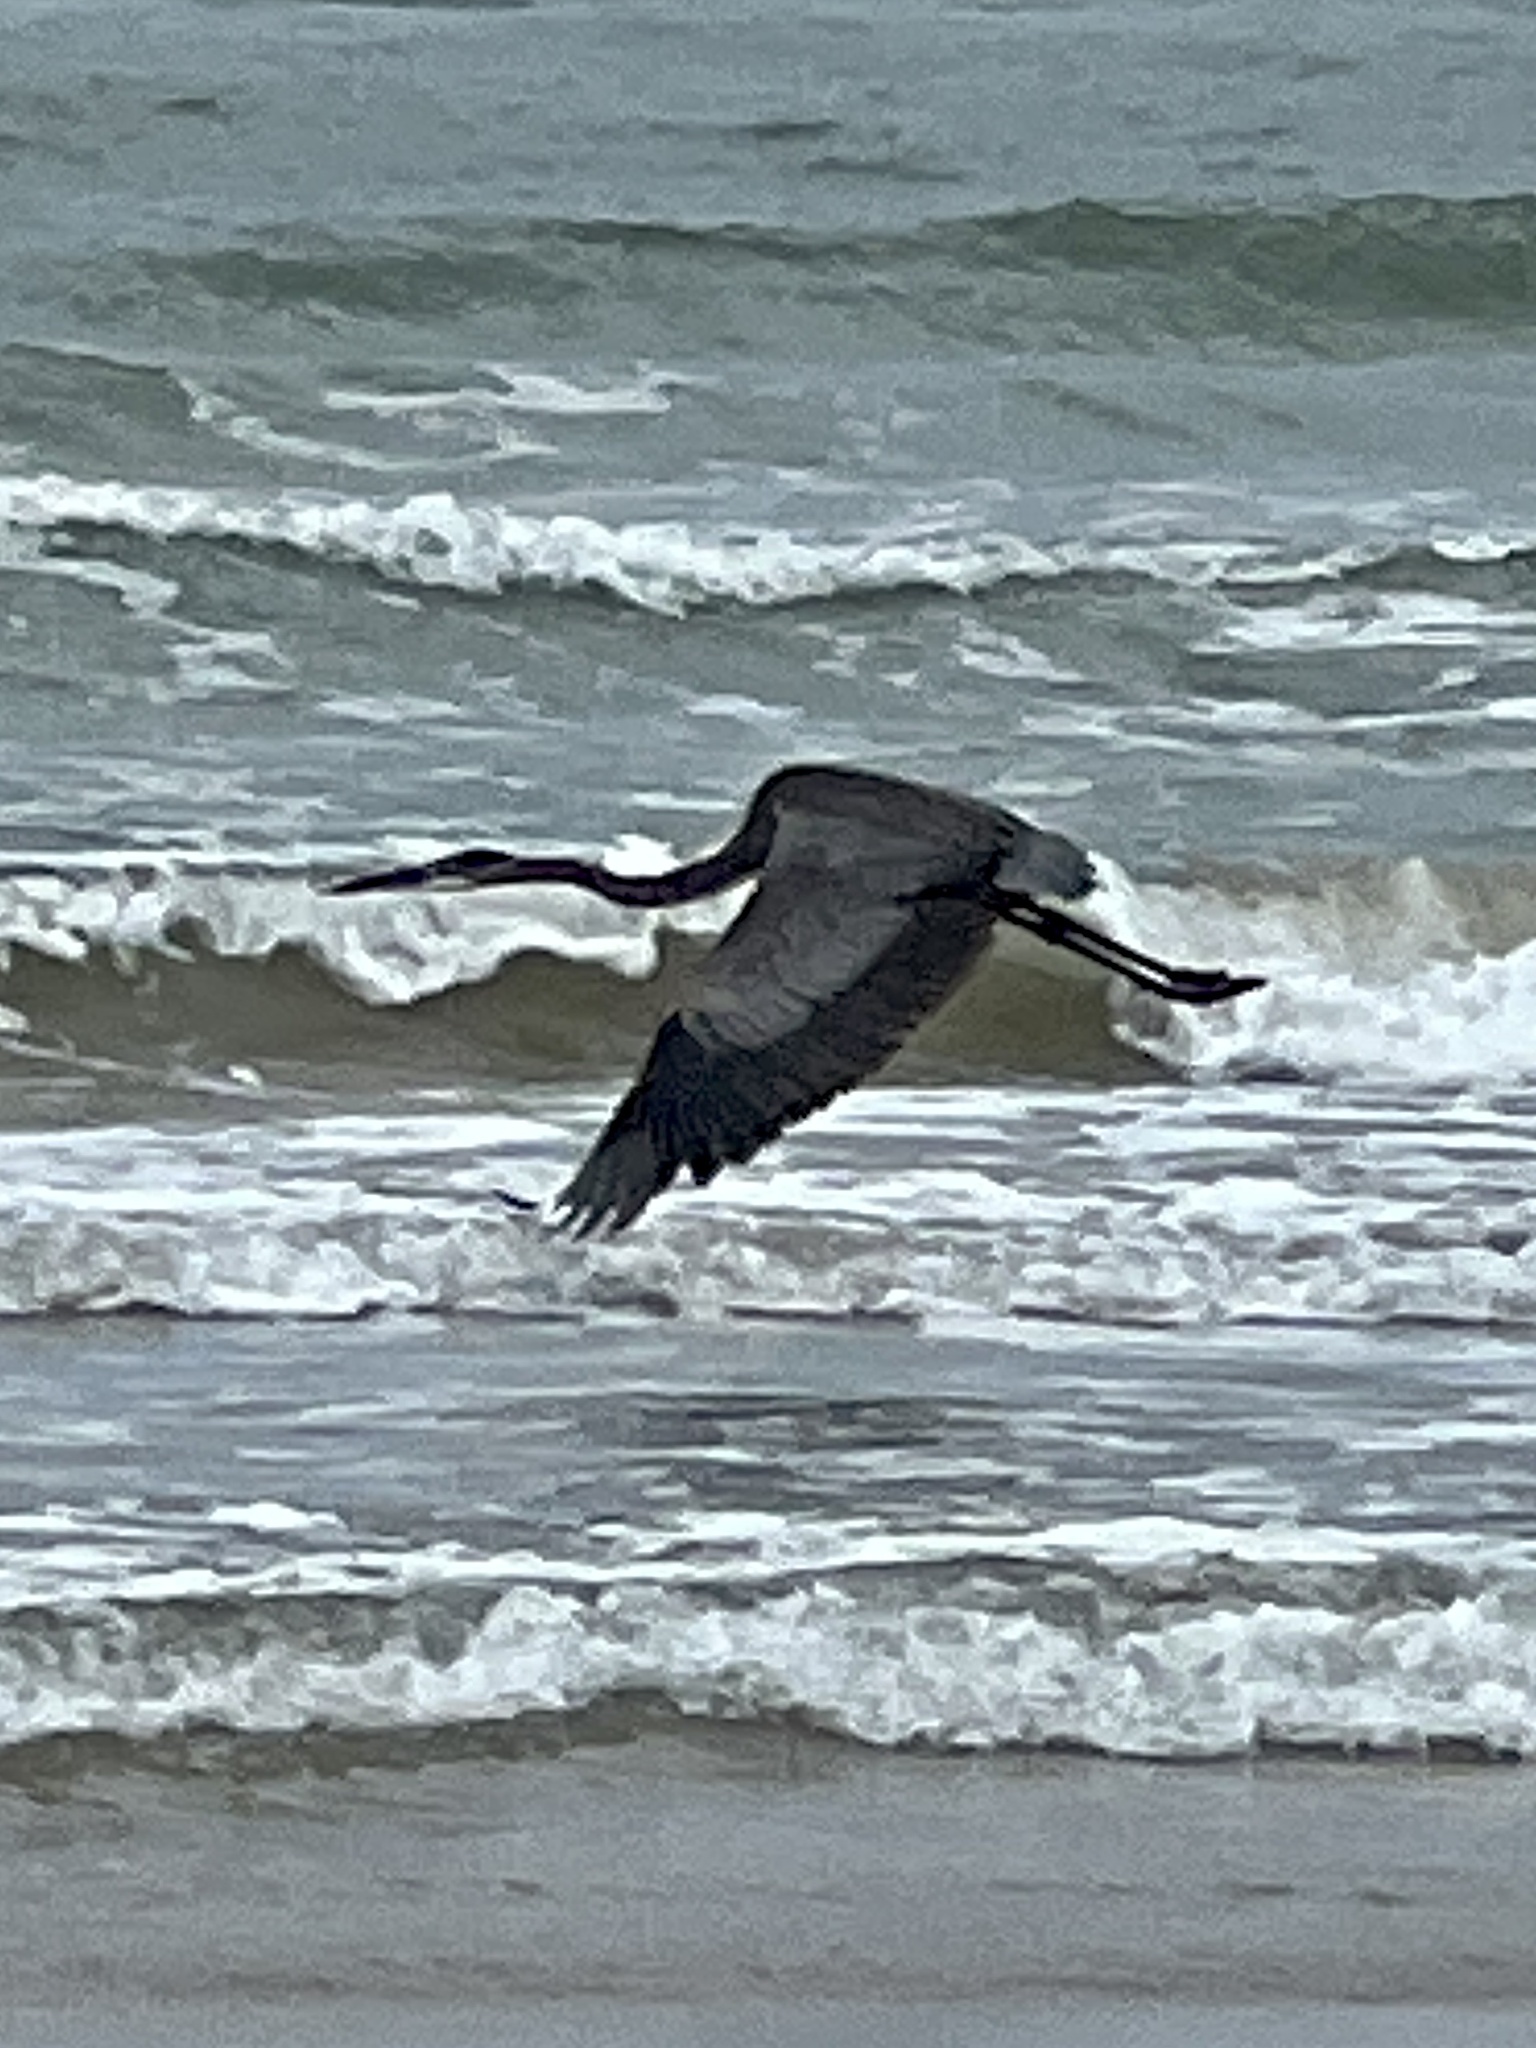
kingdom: Animalia
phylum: Chordata
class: Aves
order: Pelecaniformes
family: Ardeidae
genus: Ardea
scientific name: Ardea herodias
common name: Great blue heron
